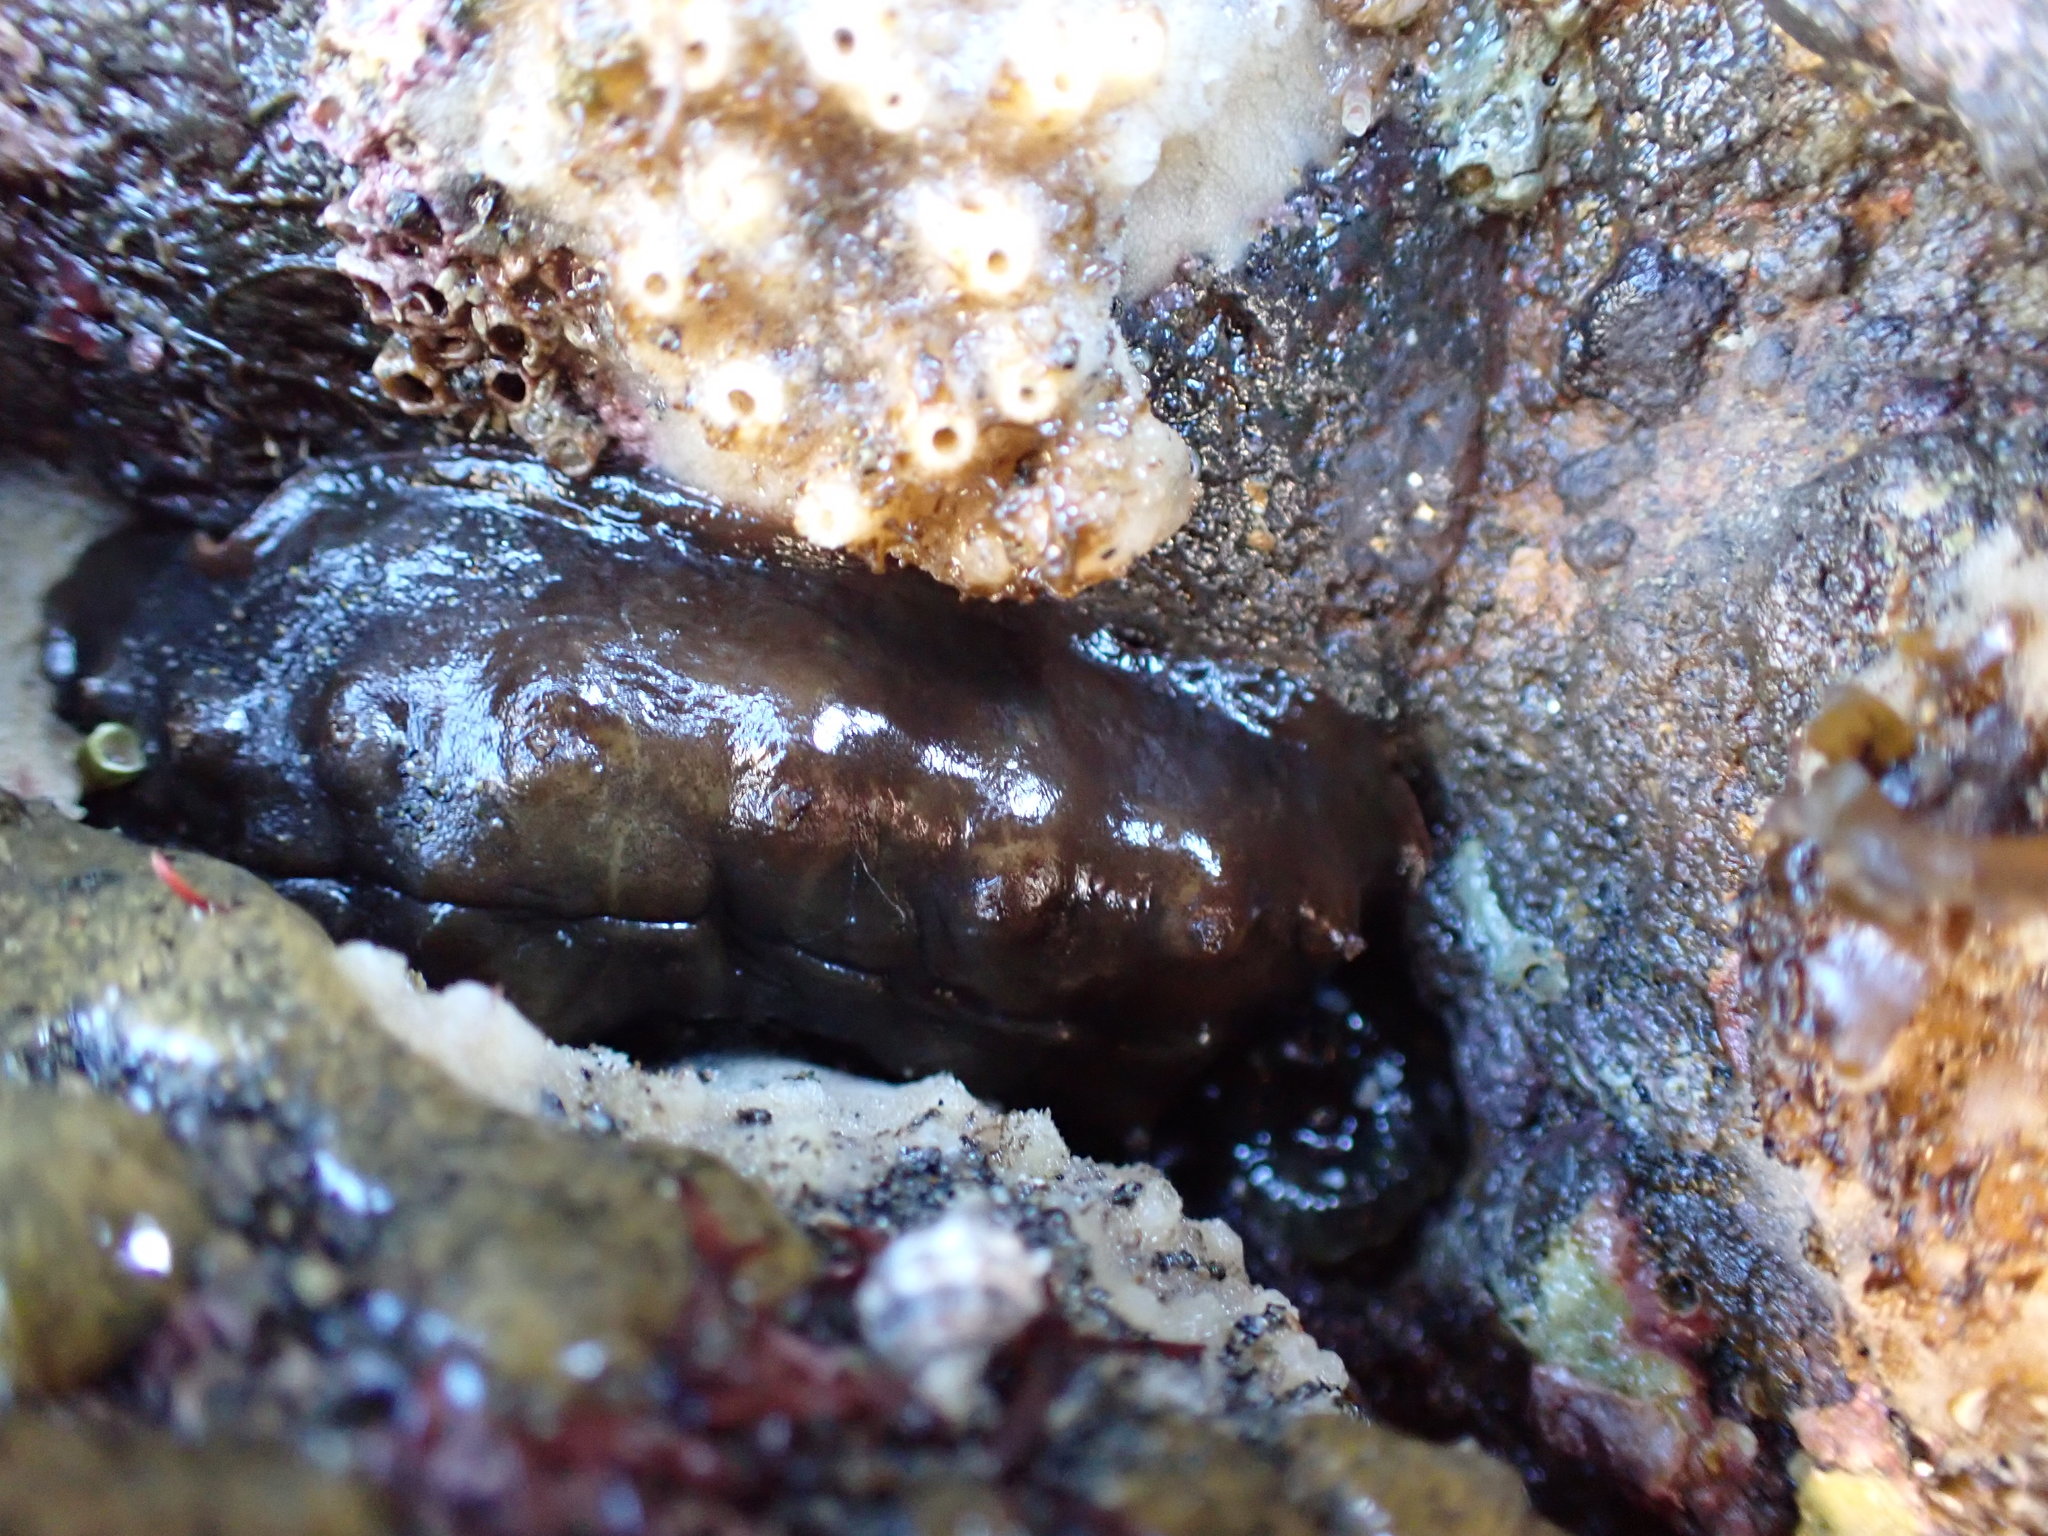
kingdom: Animalia
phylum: Mollusca
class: Polyplacophora
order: Chitonida
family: Acanthochitonidae
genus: Cryptoconchus
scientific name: Cryptoconchus porosus
